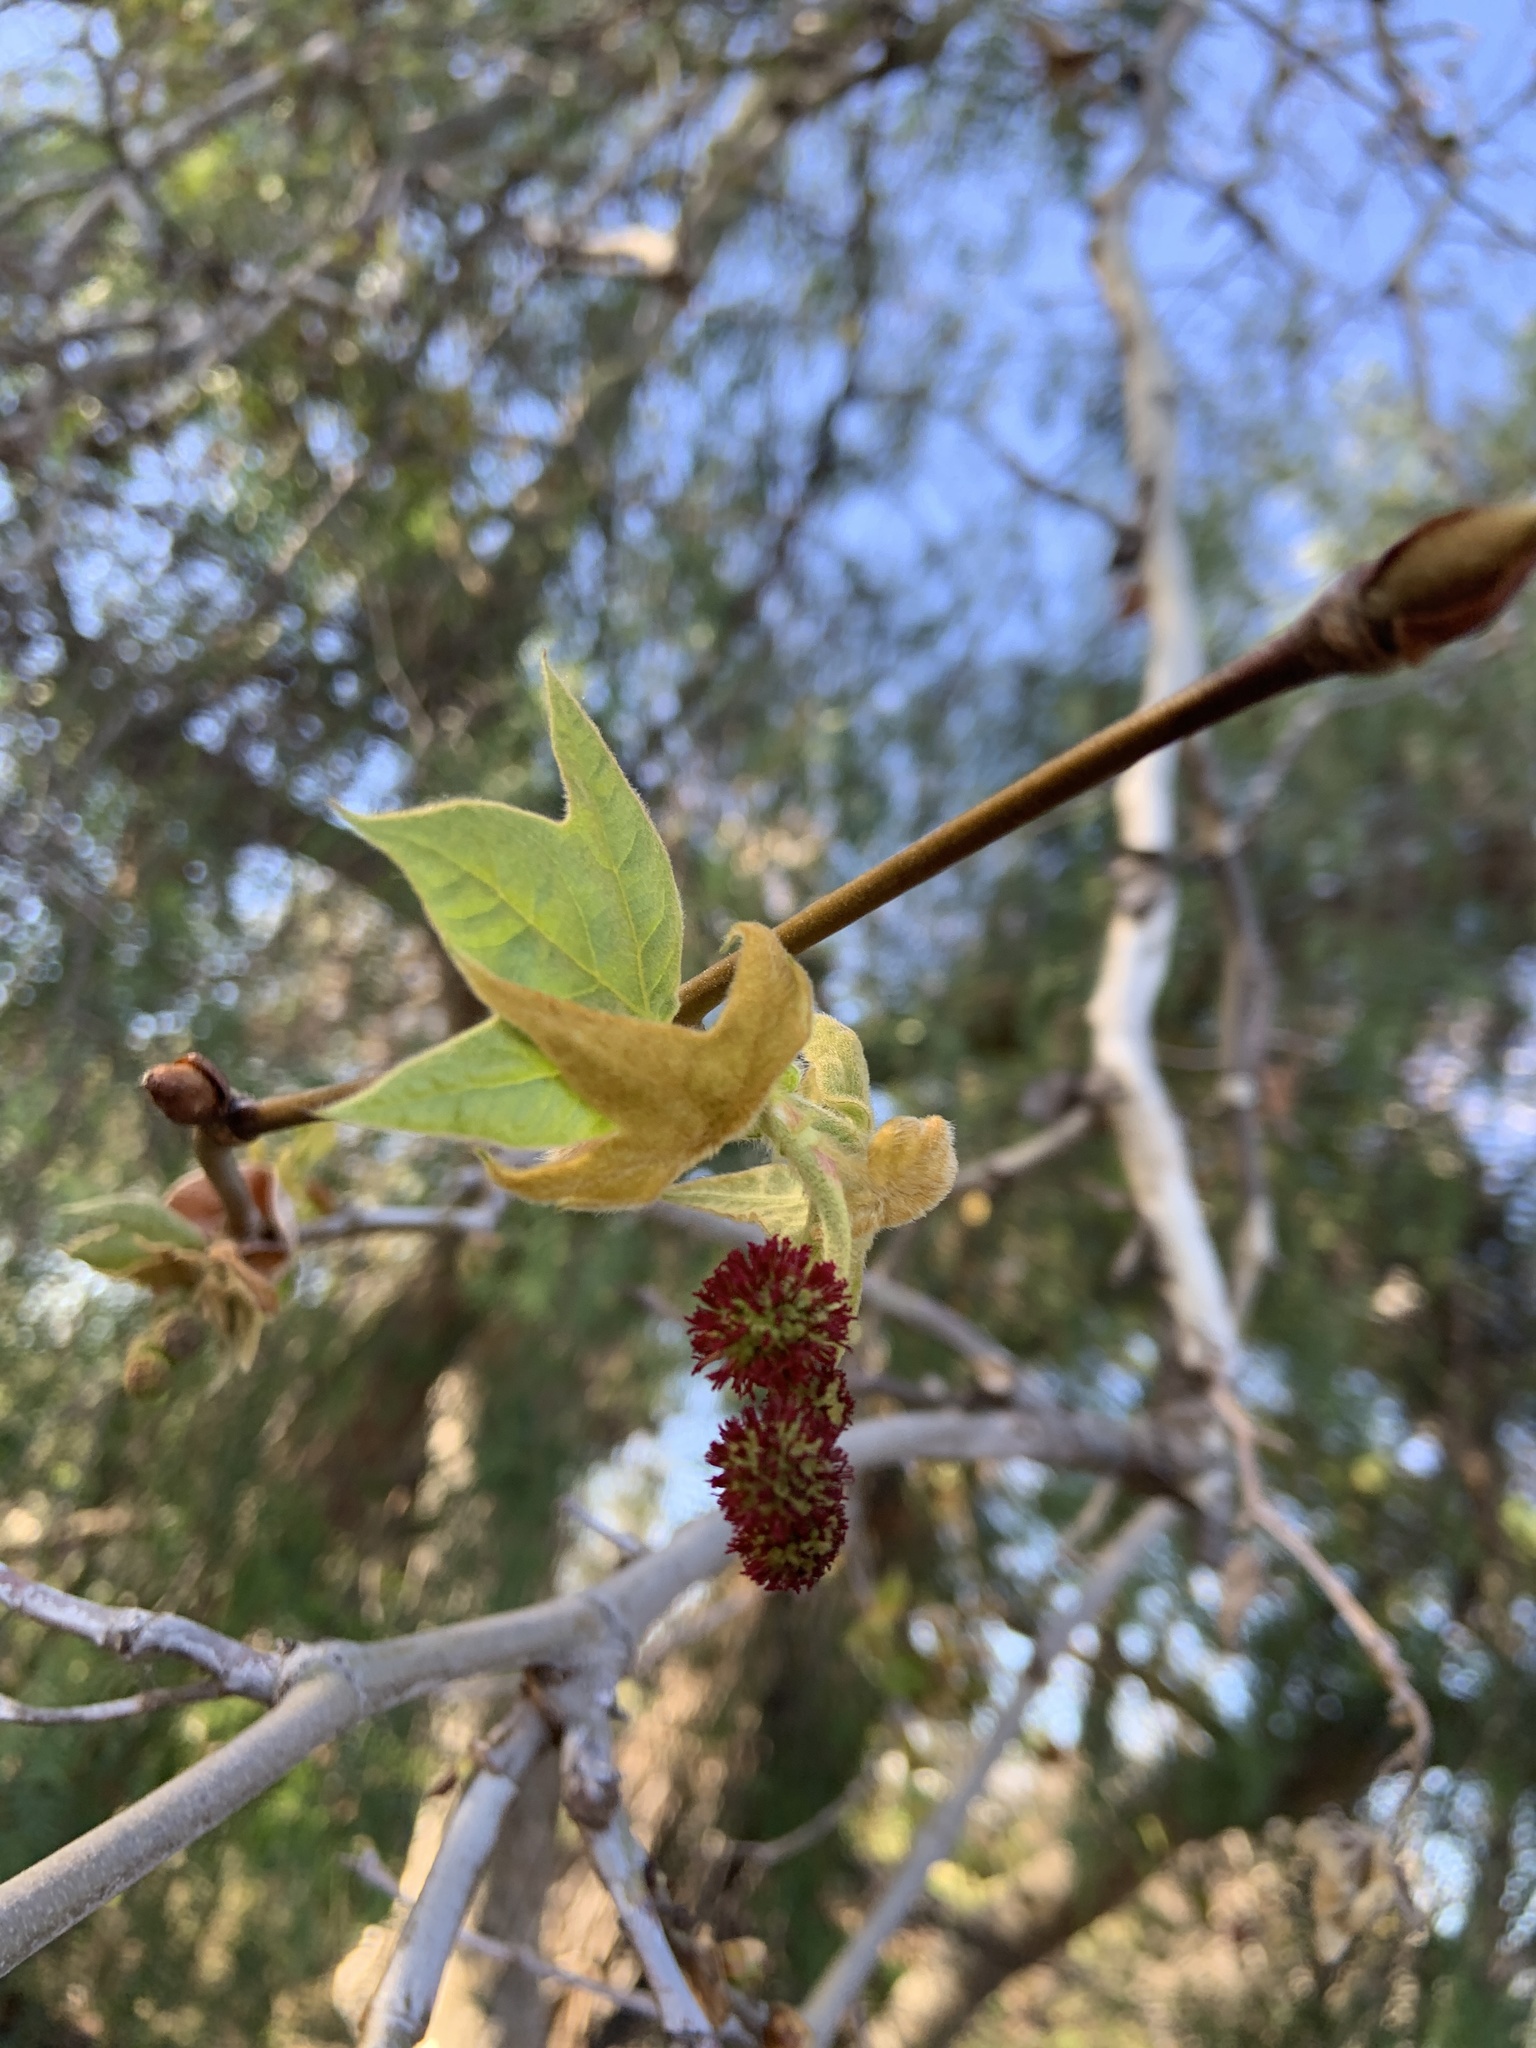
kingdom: Plantae
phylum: Tracheophyta
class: Magnoliopsida
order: Proteales
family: Platanaceae
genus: Platanus
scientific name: Platanus racemosa
